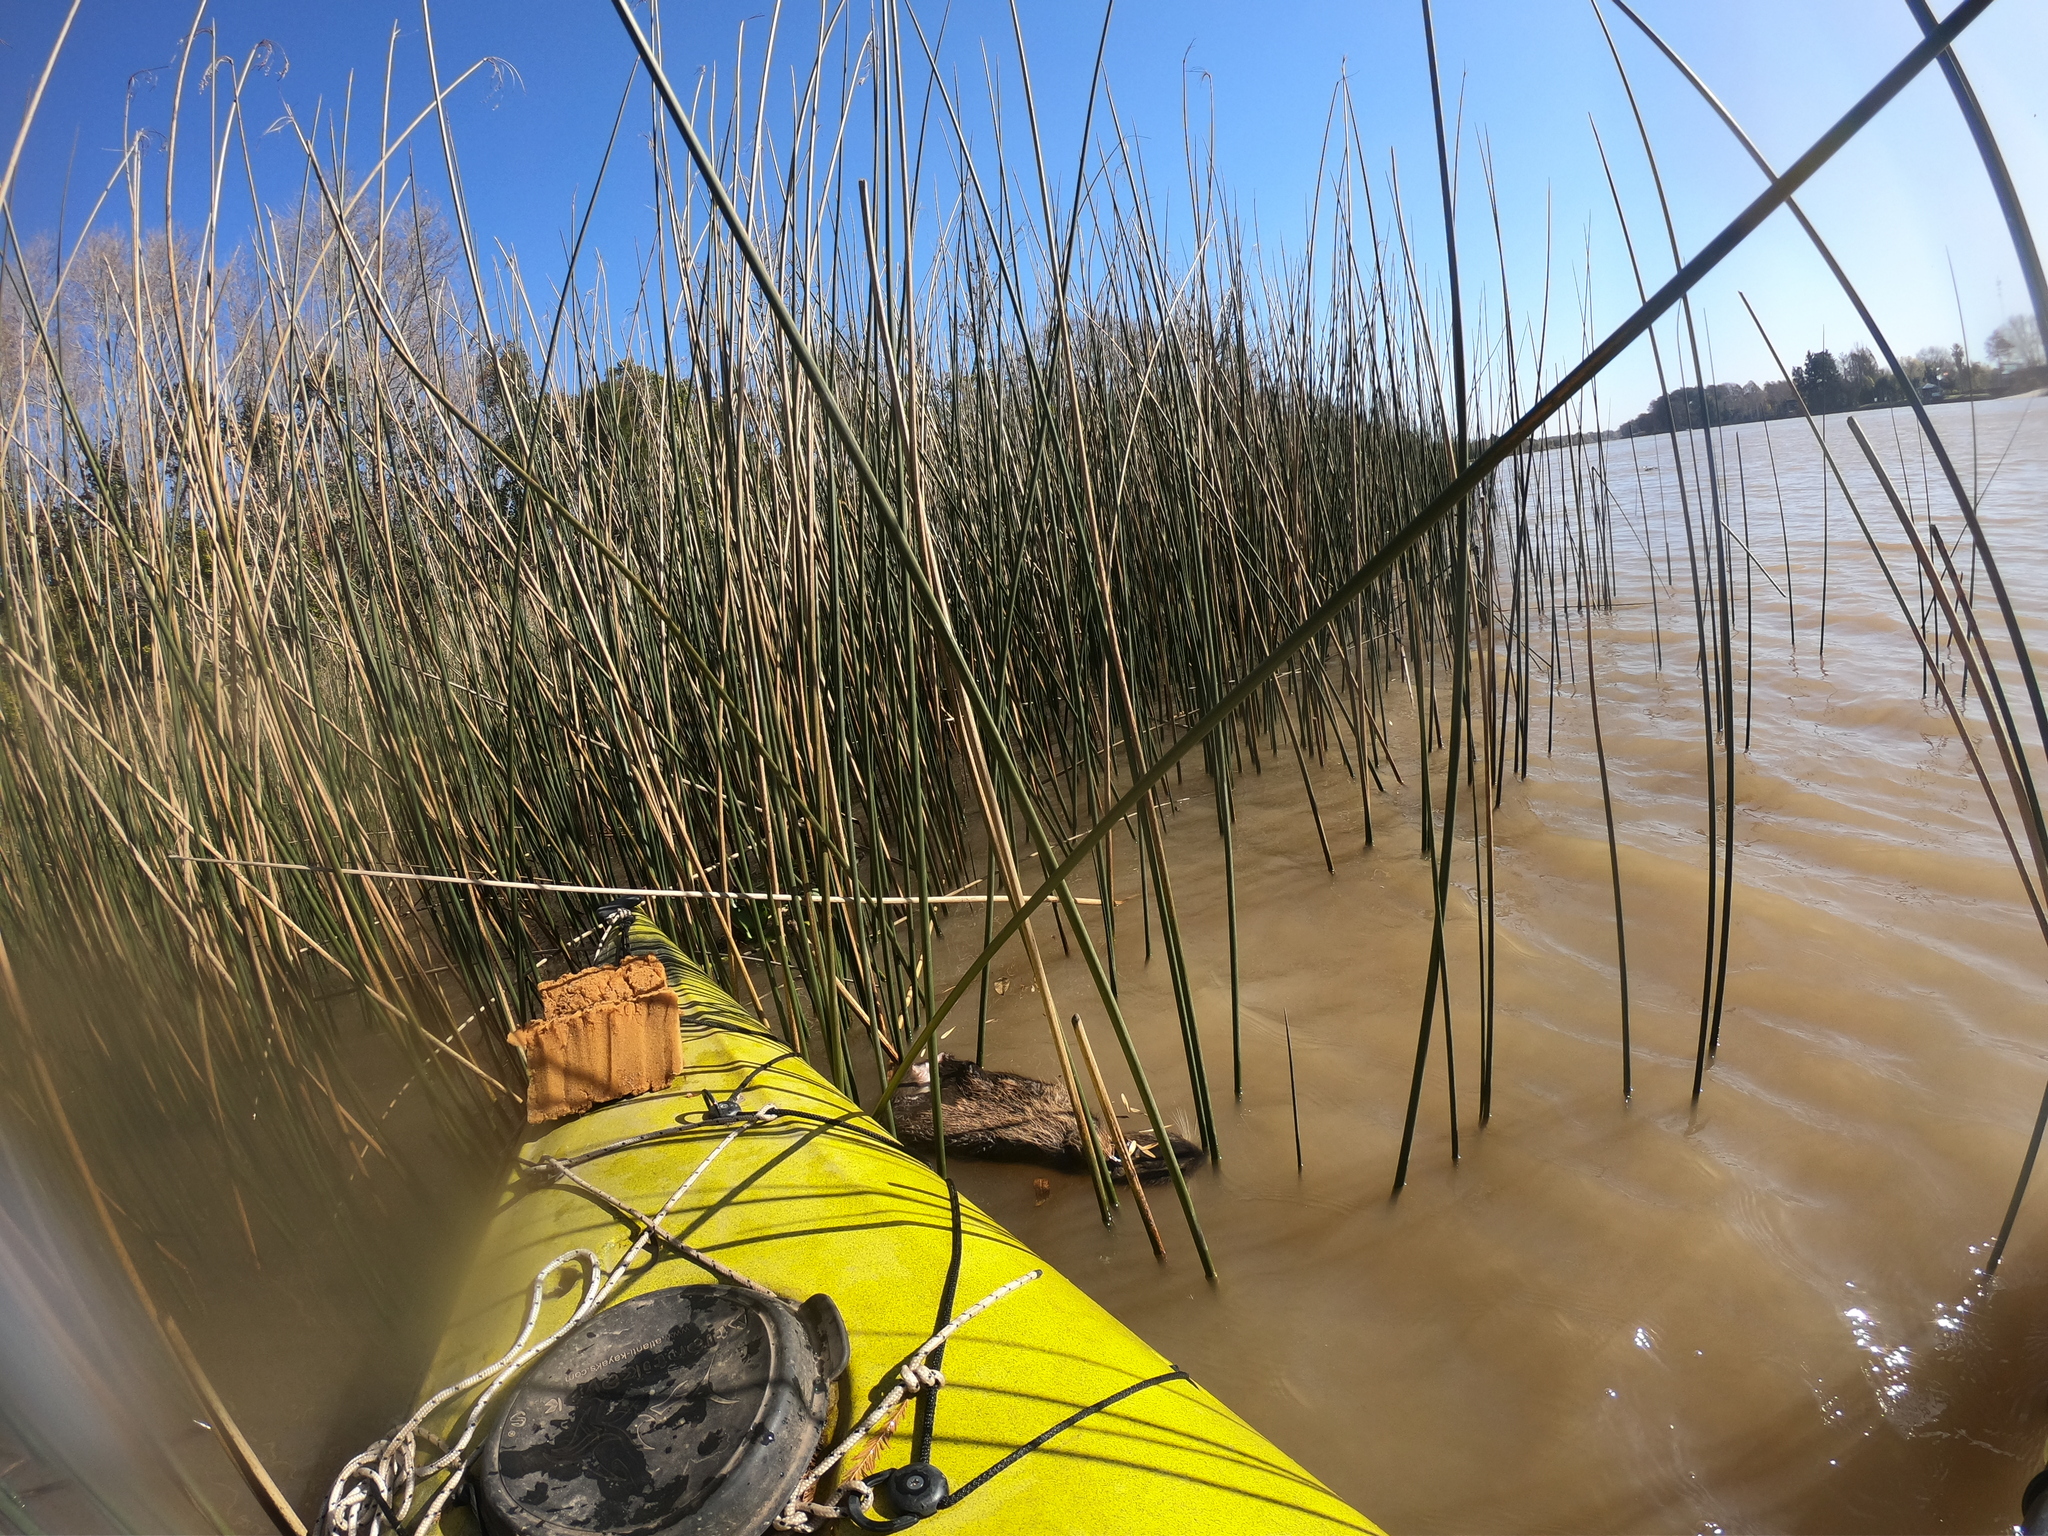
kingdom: Animalia
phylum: Chordata
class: Mammalia
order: Rodentia
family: Myocastoridae
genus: Myocastor
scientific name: Myocastor coypus
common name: Coypu
